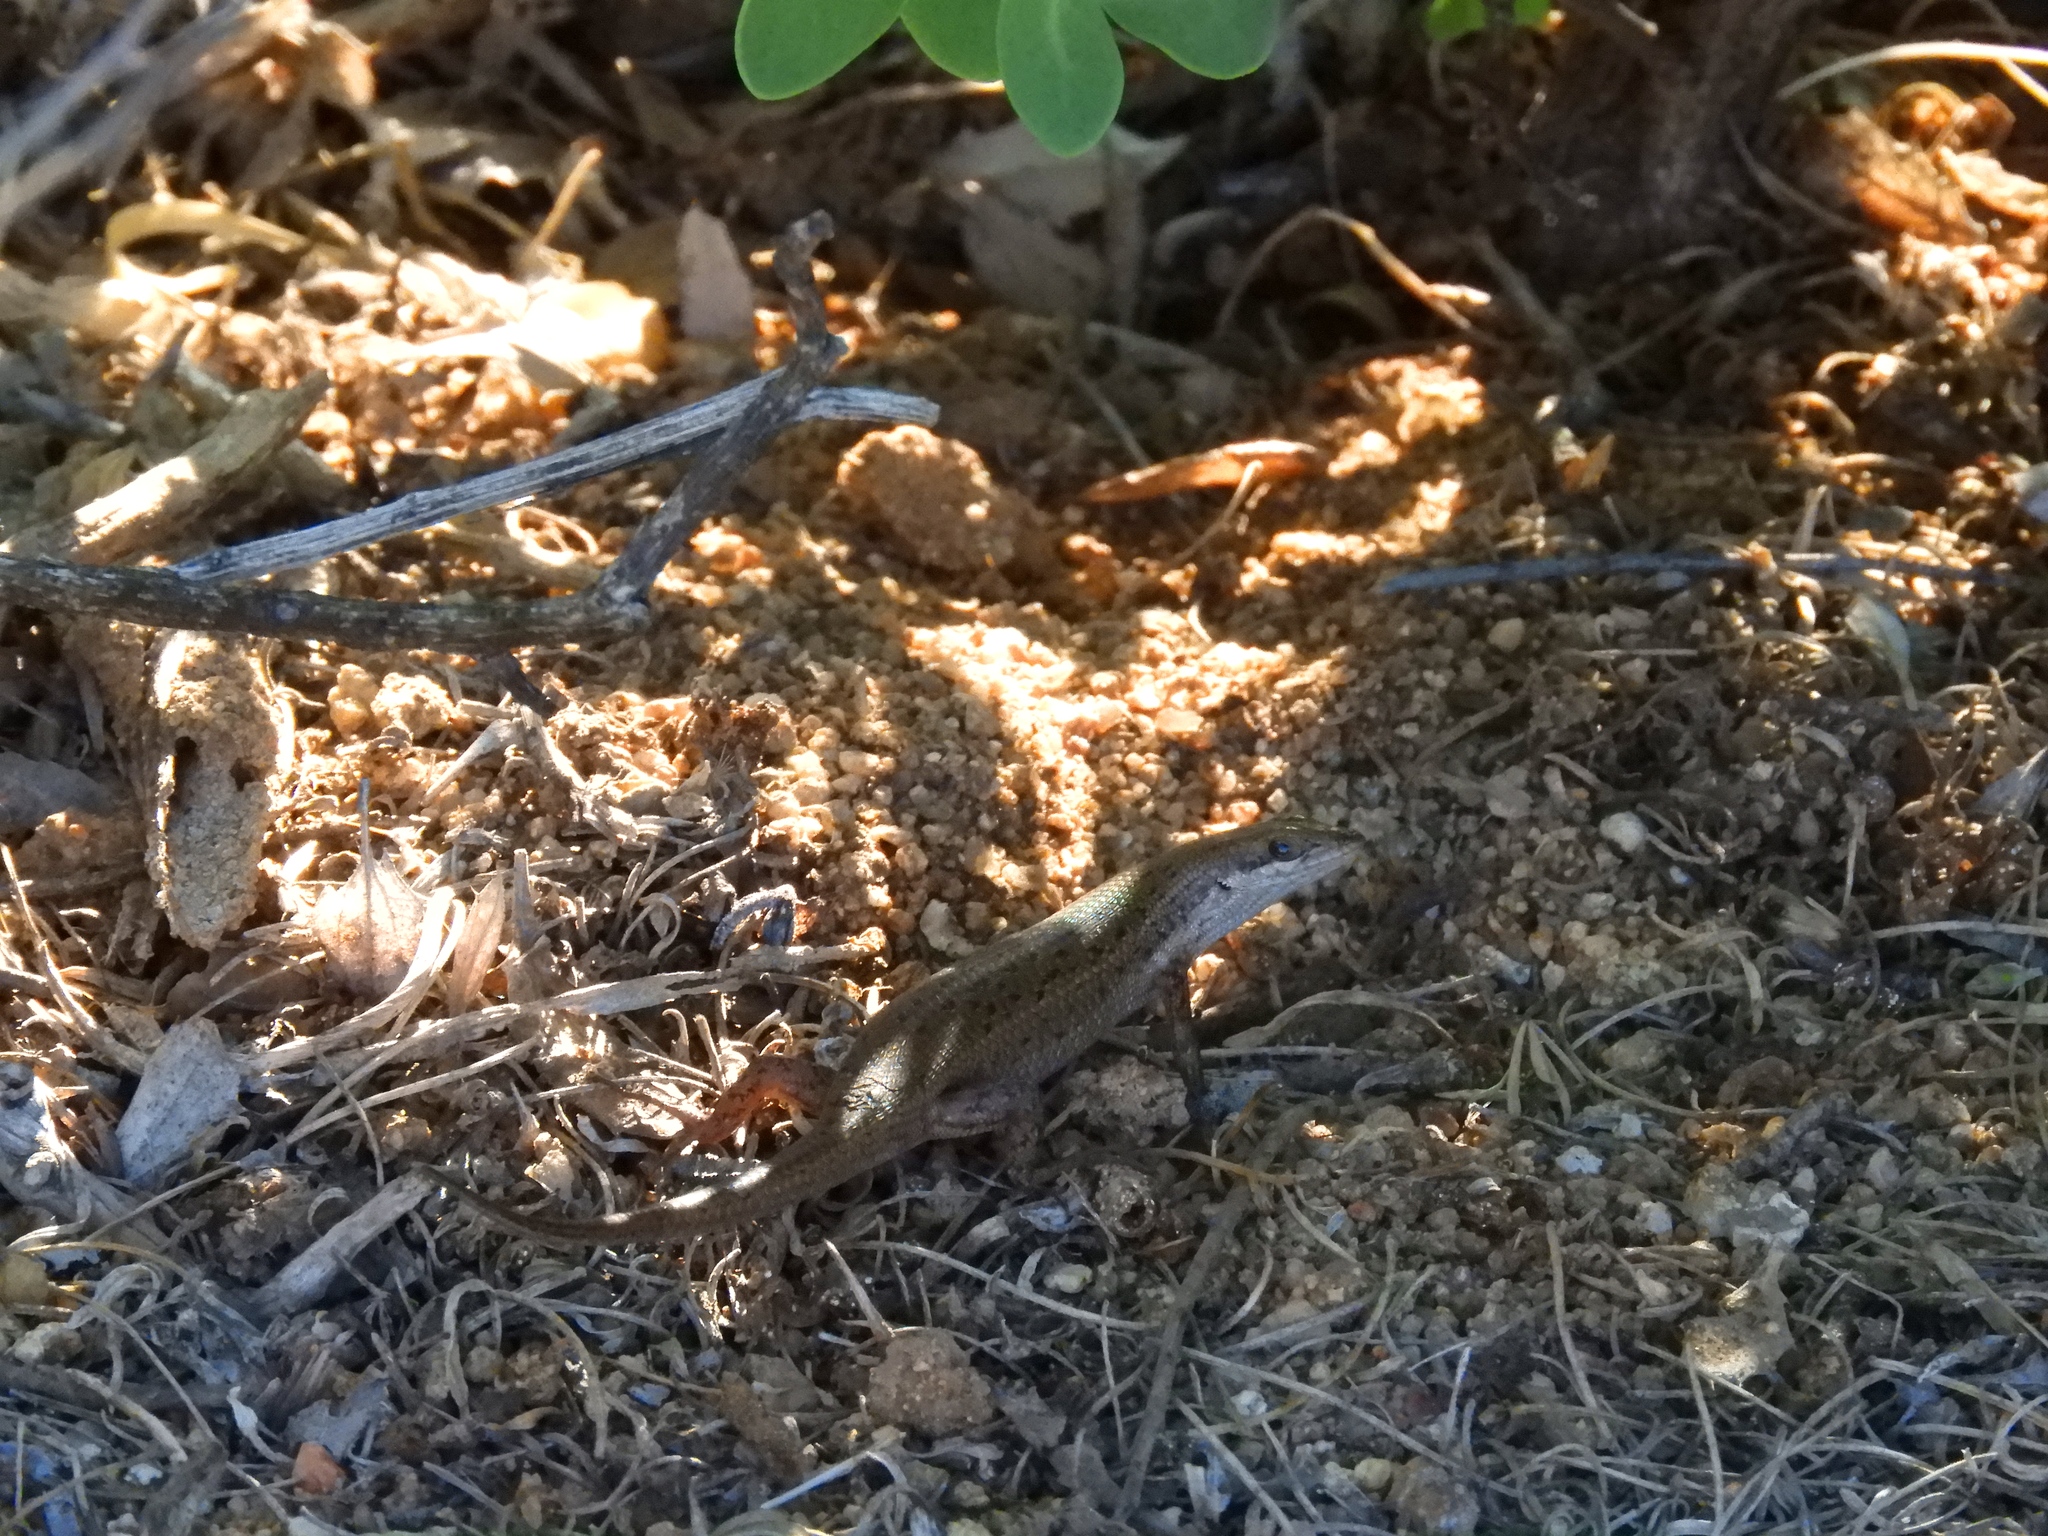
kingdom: Animalia
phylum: Chordata
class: Squamata
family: Scincidae
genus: Trachylepis
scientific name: Trachylepis variegata
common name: Variegated skink
